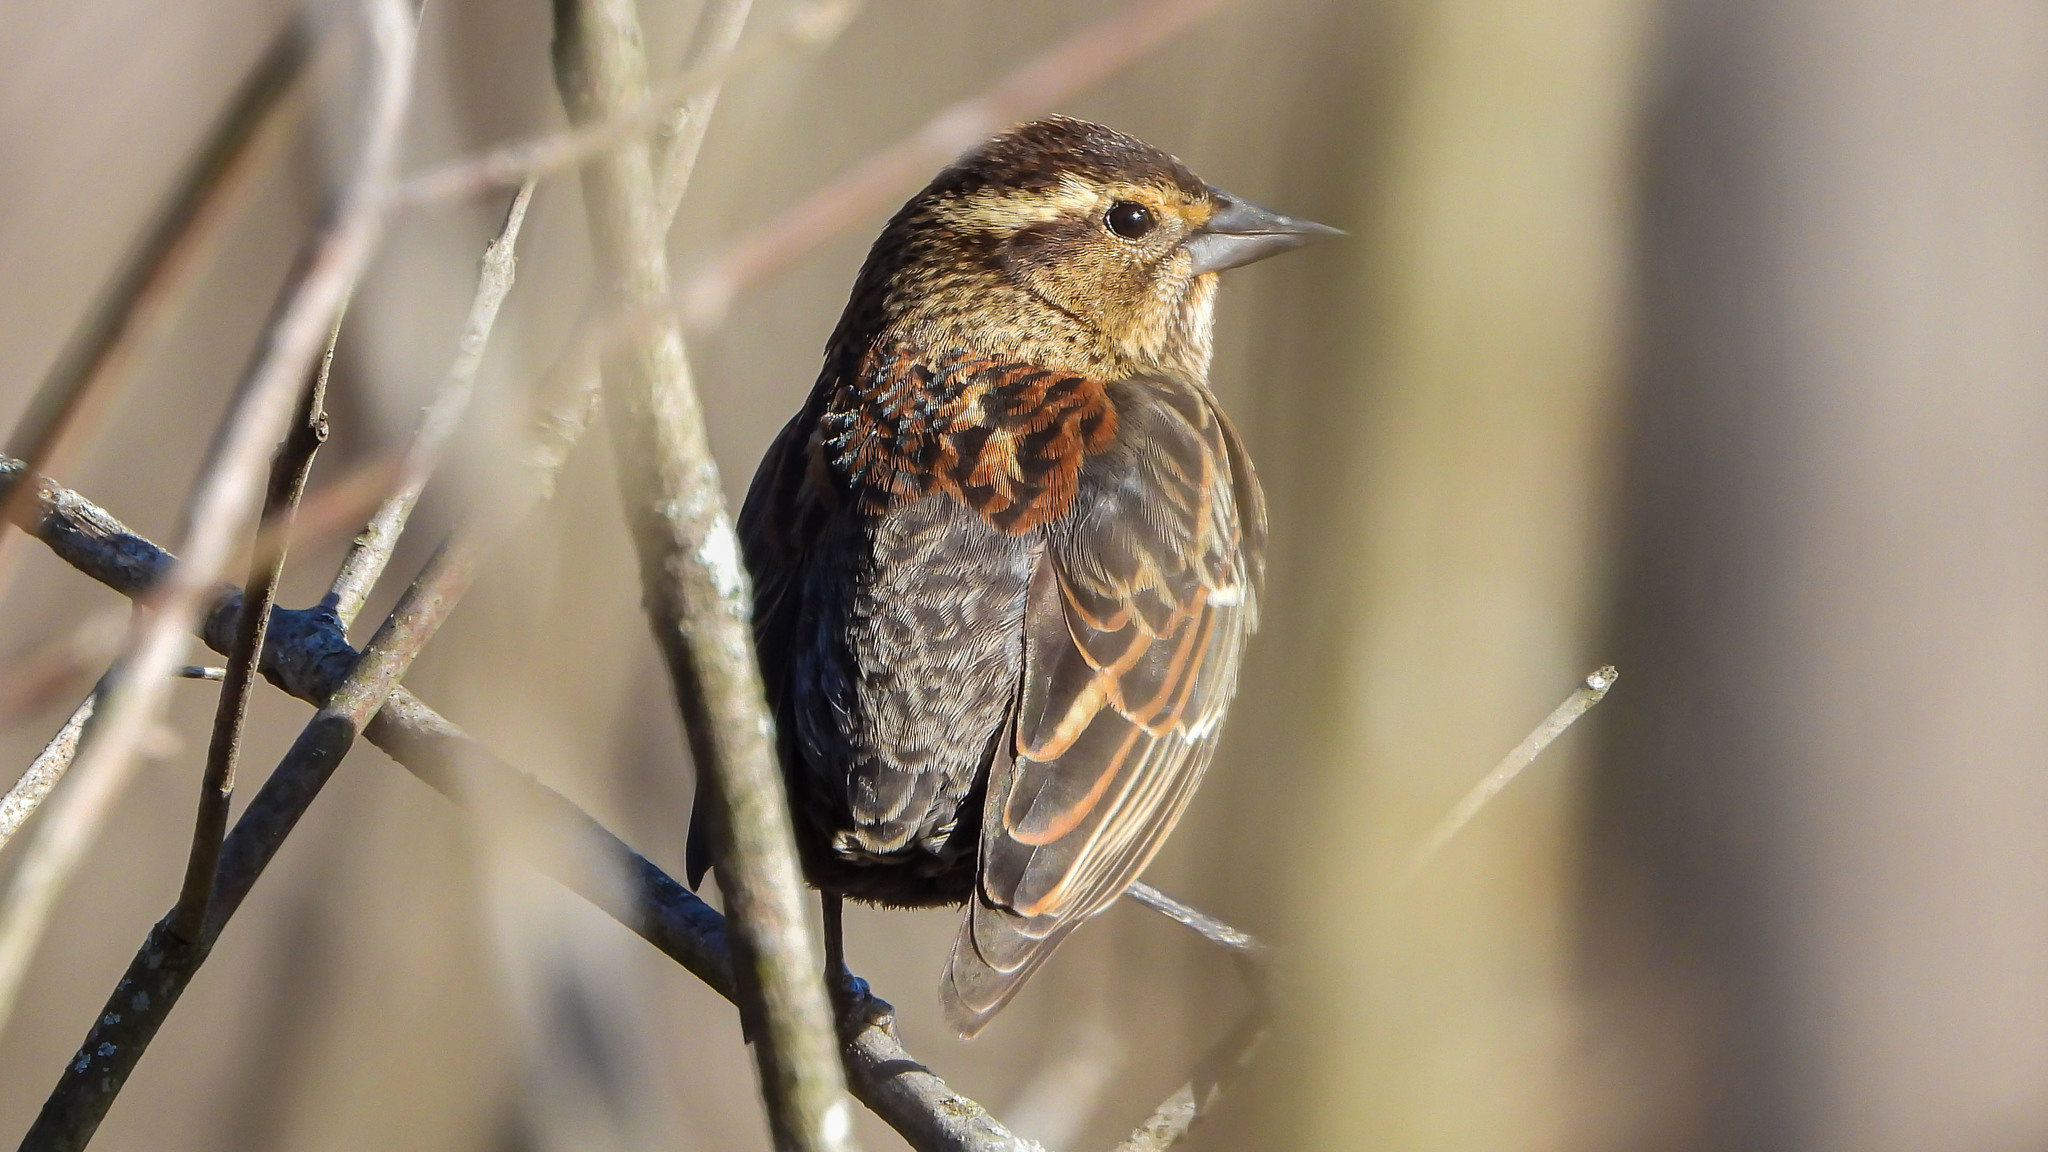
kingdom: Animalia
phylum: Chordata
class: Aves
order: Passeriformes
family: Icteridae
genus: Agelaius
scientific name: Agelaius phoeniceus
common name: Red-winged blackbird
